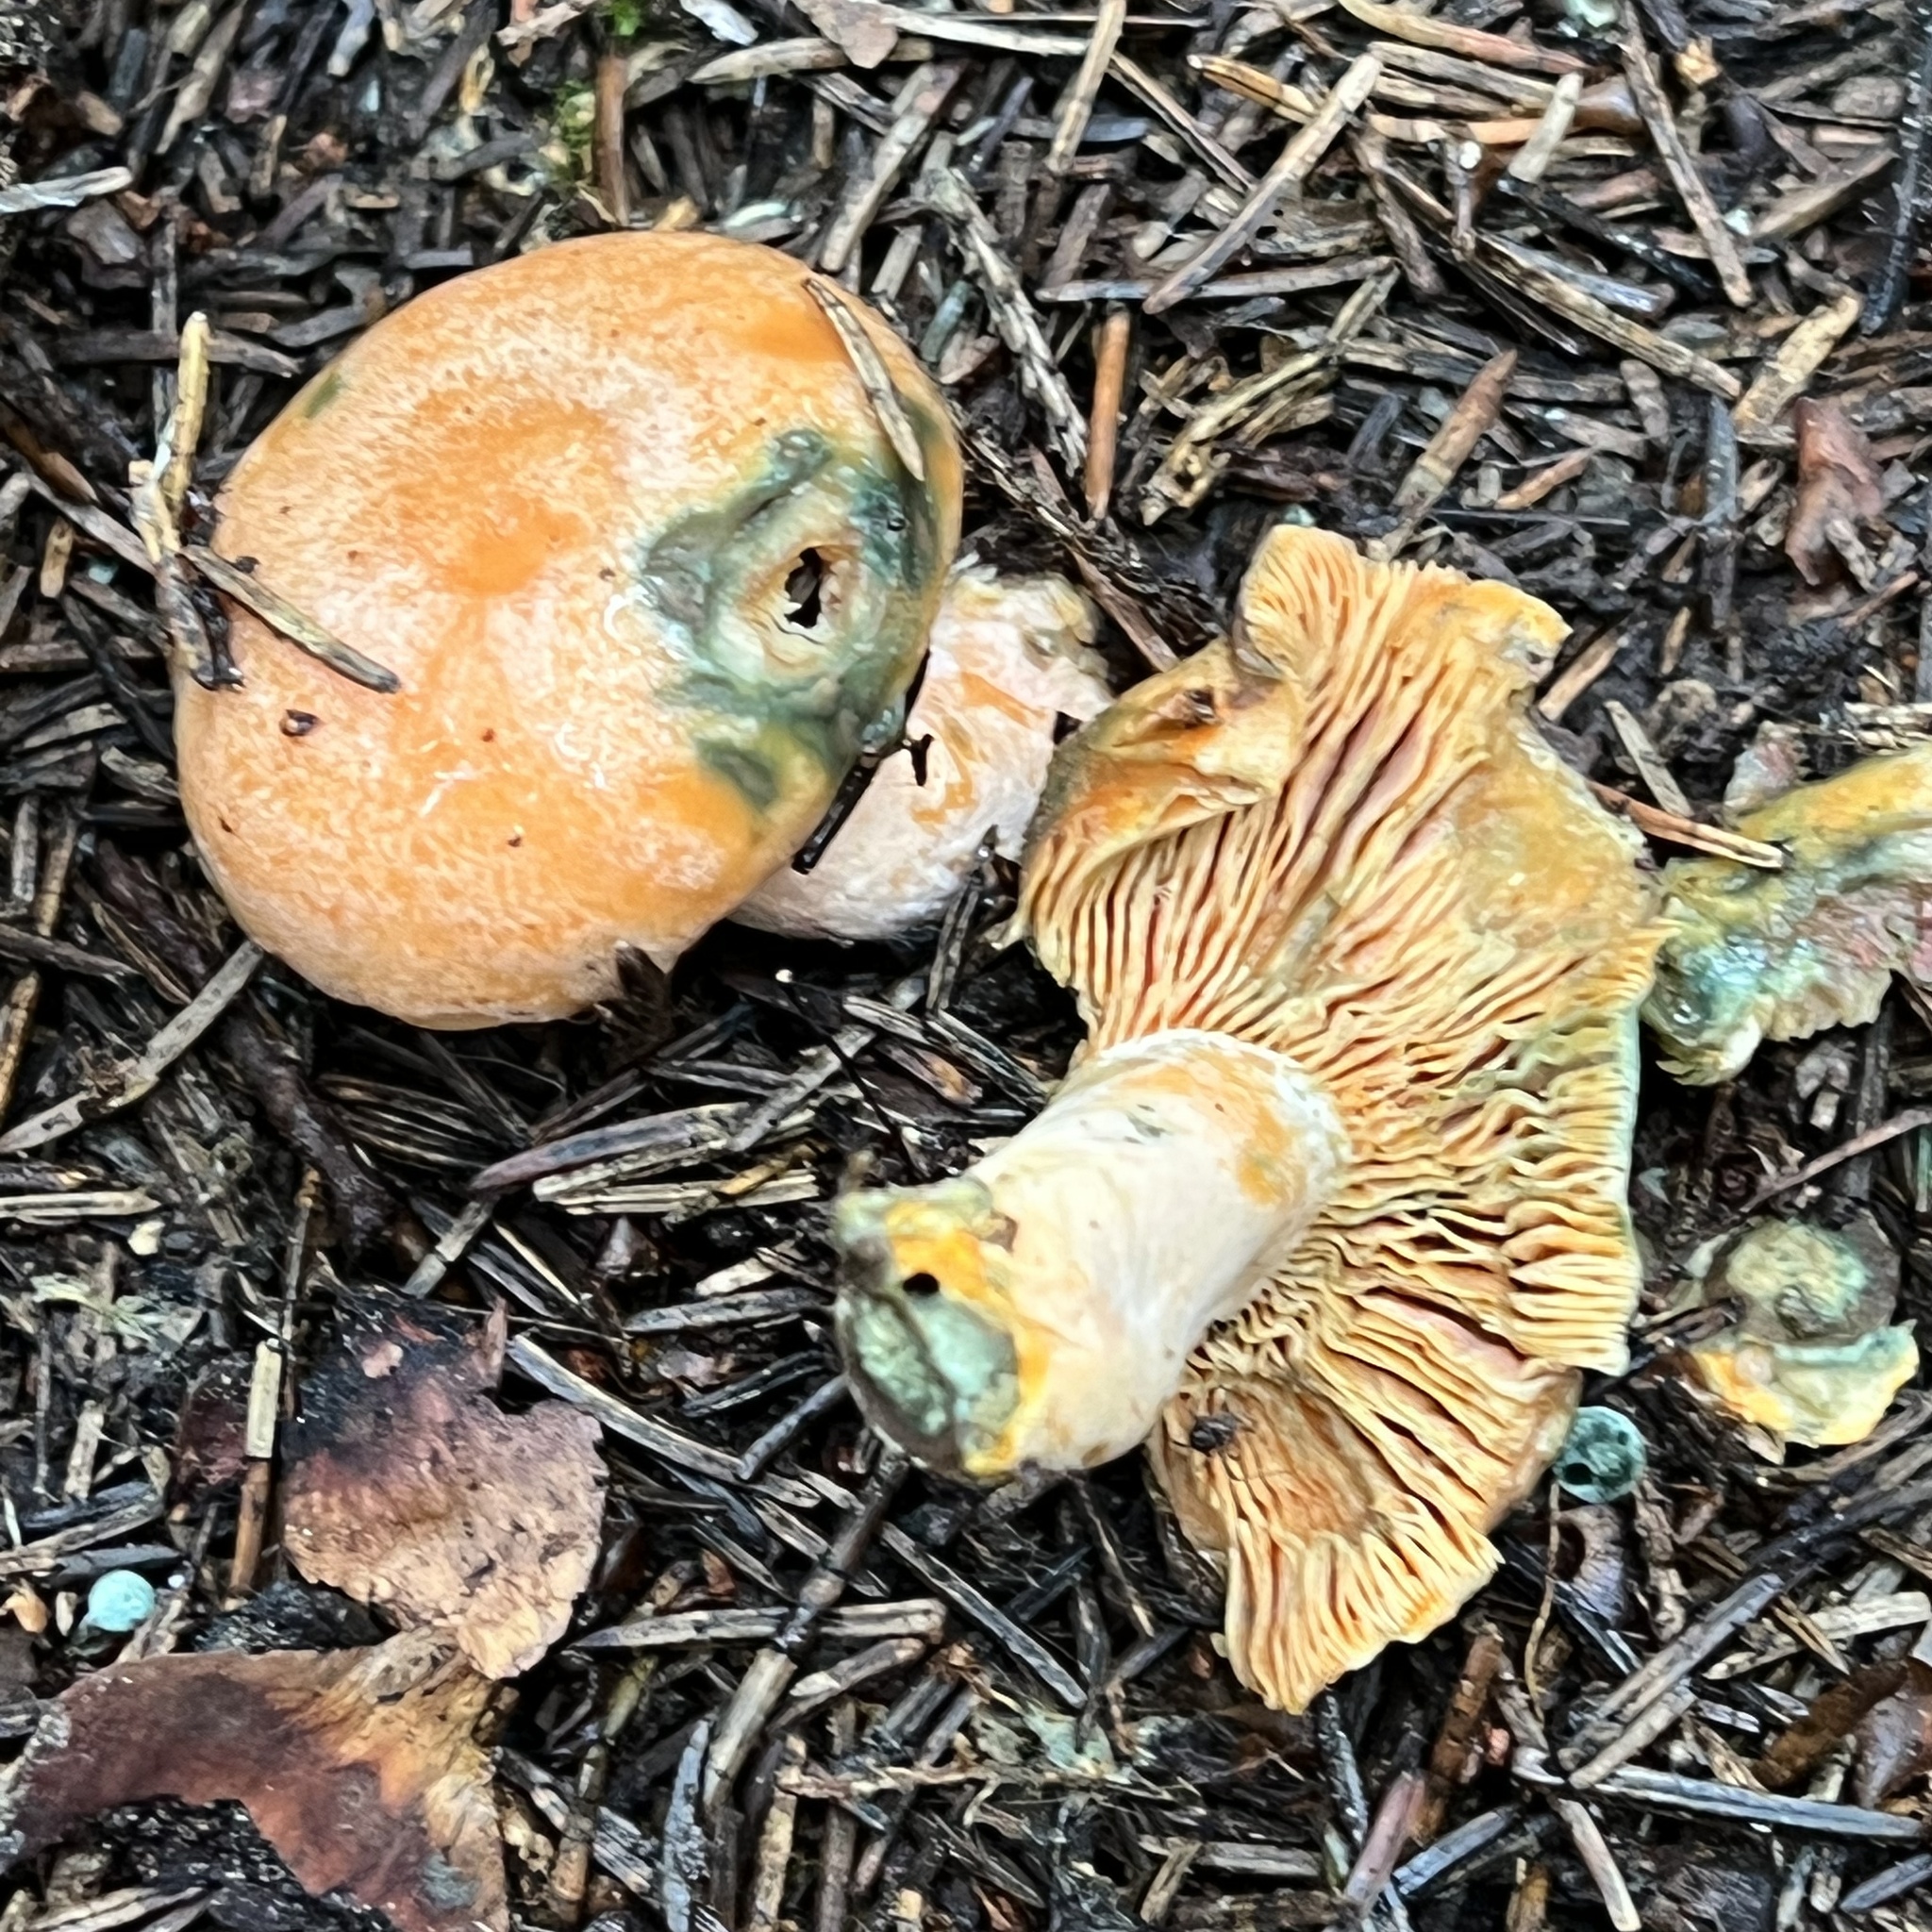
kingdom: Fungi
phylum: Basidiomycota
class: Agaricomycetes
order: Russulales
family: Russulaceae
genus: Lactarius
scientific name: Lactarius deterrimus
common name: False saffron milkcap
